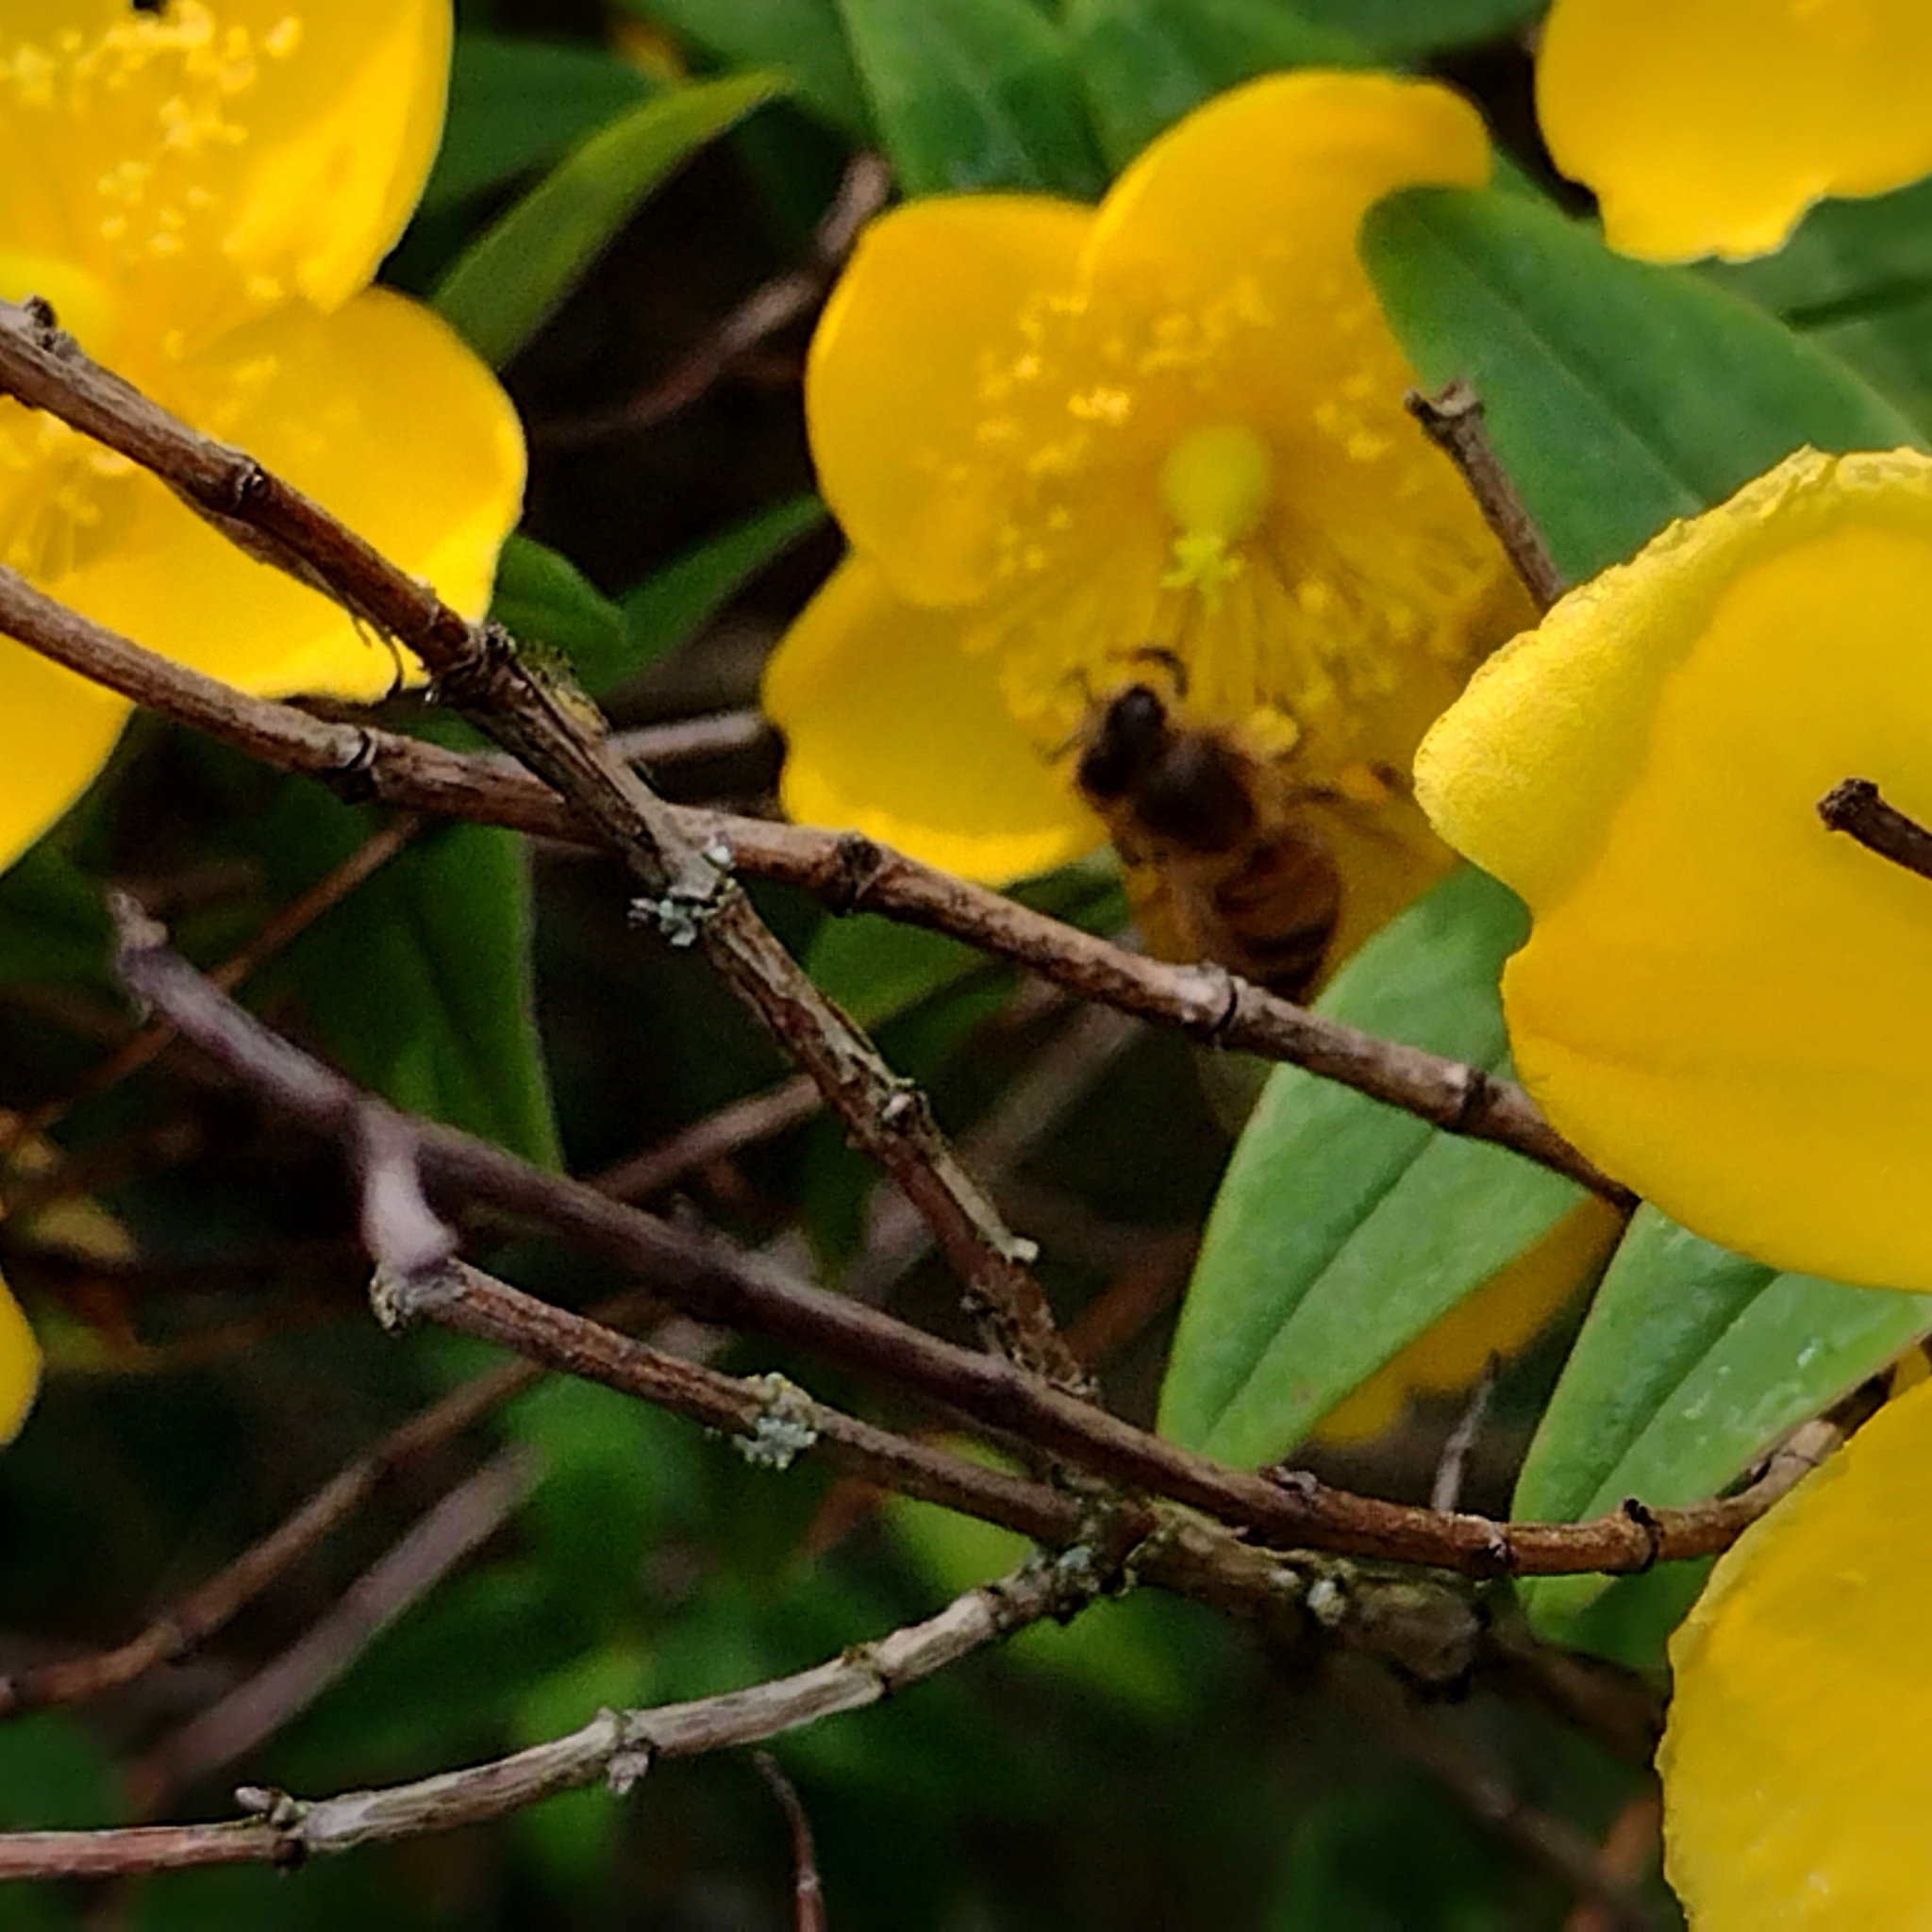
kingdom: Animalia
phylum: Arthropoda
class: Insecta
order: Hymenoptera
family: Apidae
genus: Apis
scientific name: Apis mellifera
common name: Honey bee
